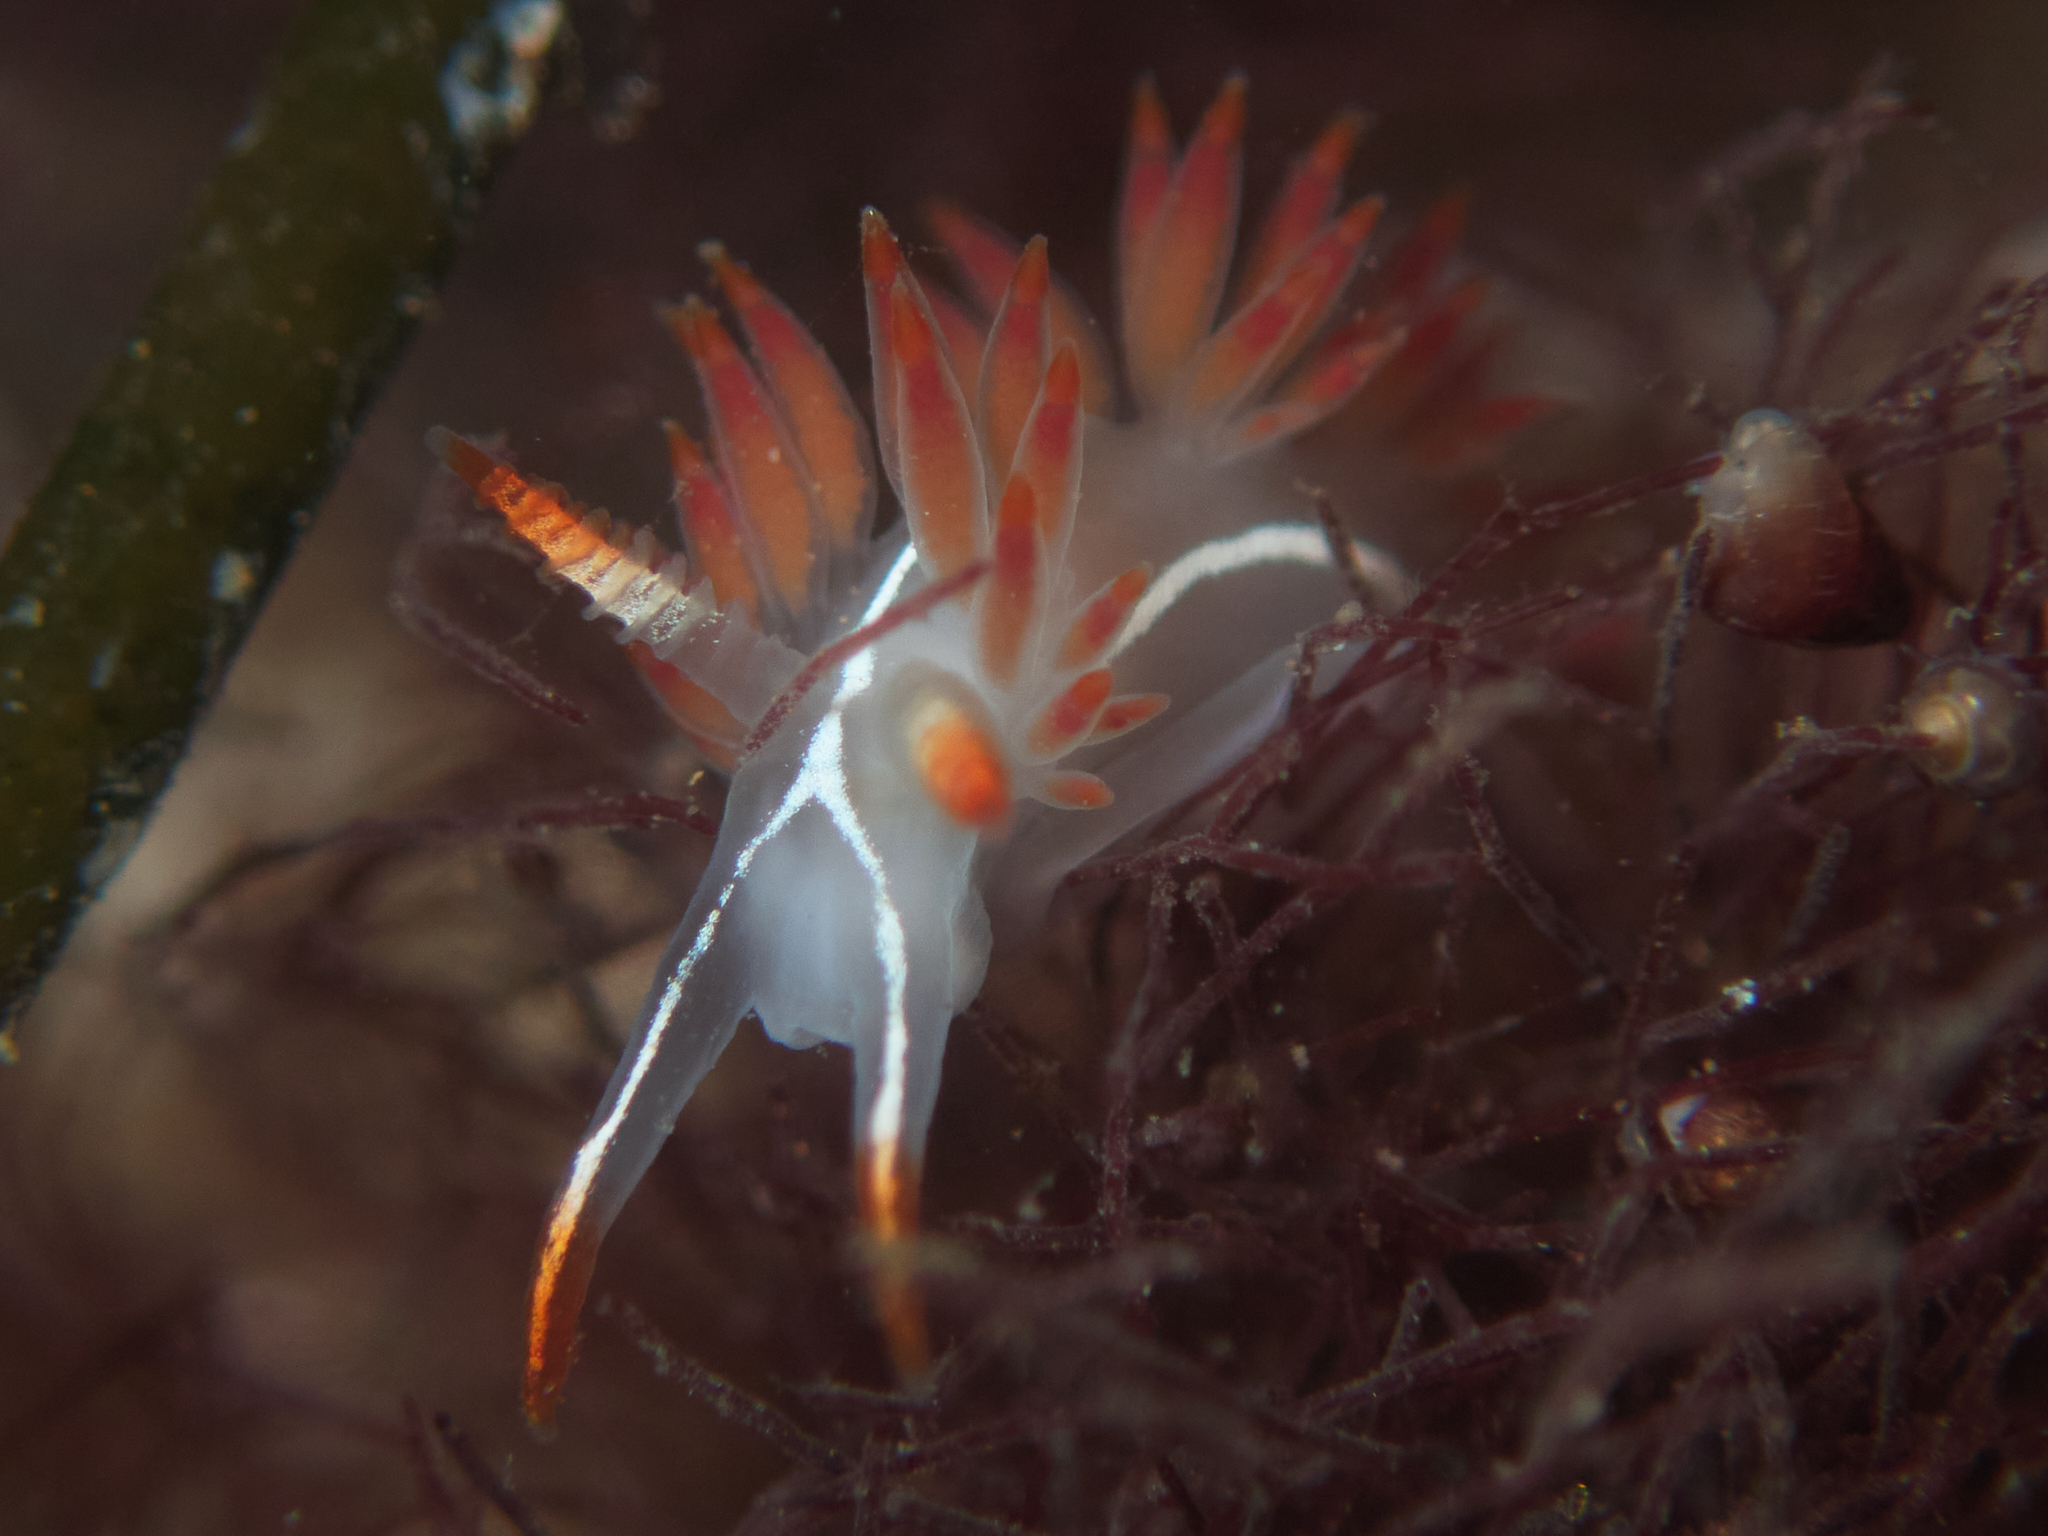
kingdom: Animalia
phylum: Mollusca
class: Gastropoda
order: Nudibranchia
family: Coryphellidae
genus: Coryphella
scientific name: Coryphella trilineata
